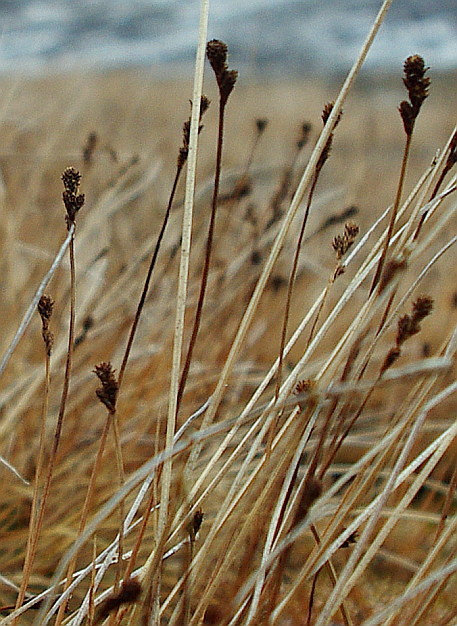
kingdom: Plantae
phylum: Tracheophyta
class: Liliopsida
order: Poales
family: Cyperaceae
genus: Carex
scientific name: Carex lachenalii
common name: Hare's-foot sedge
